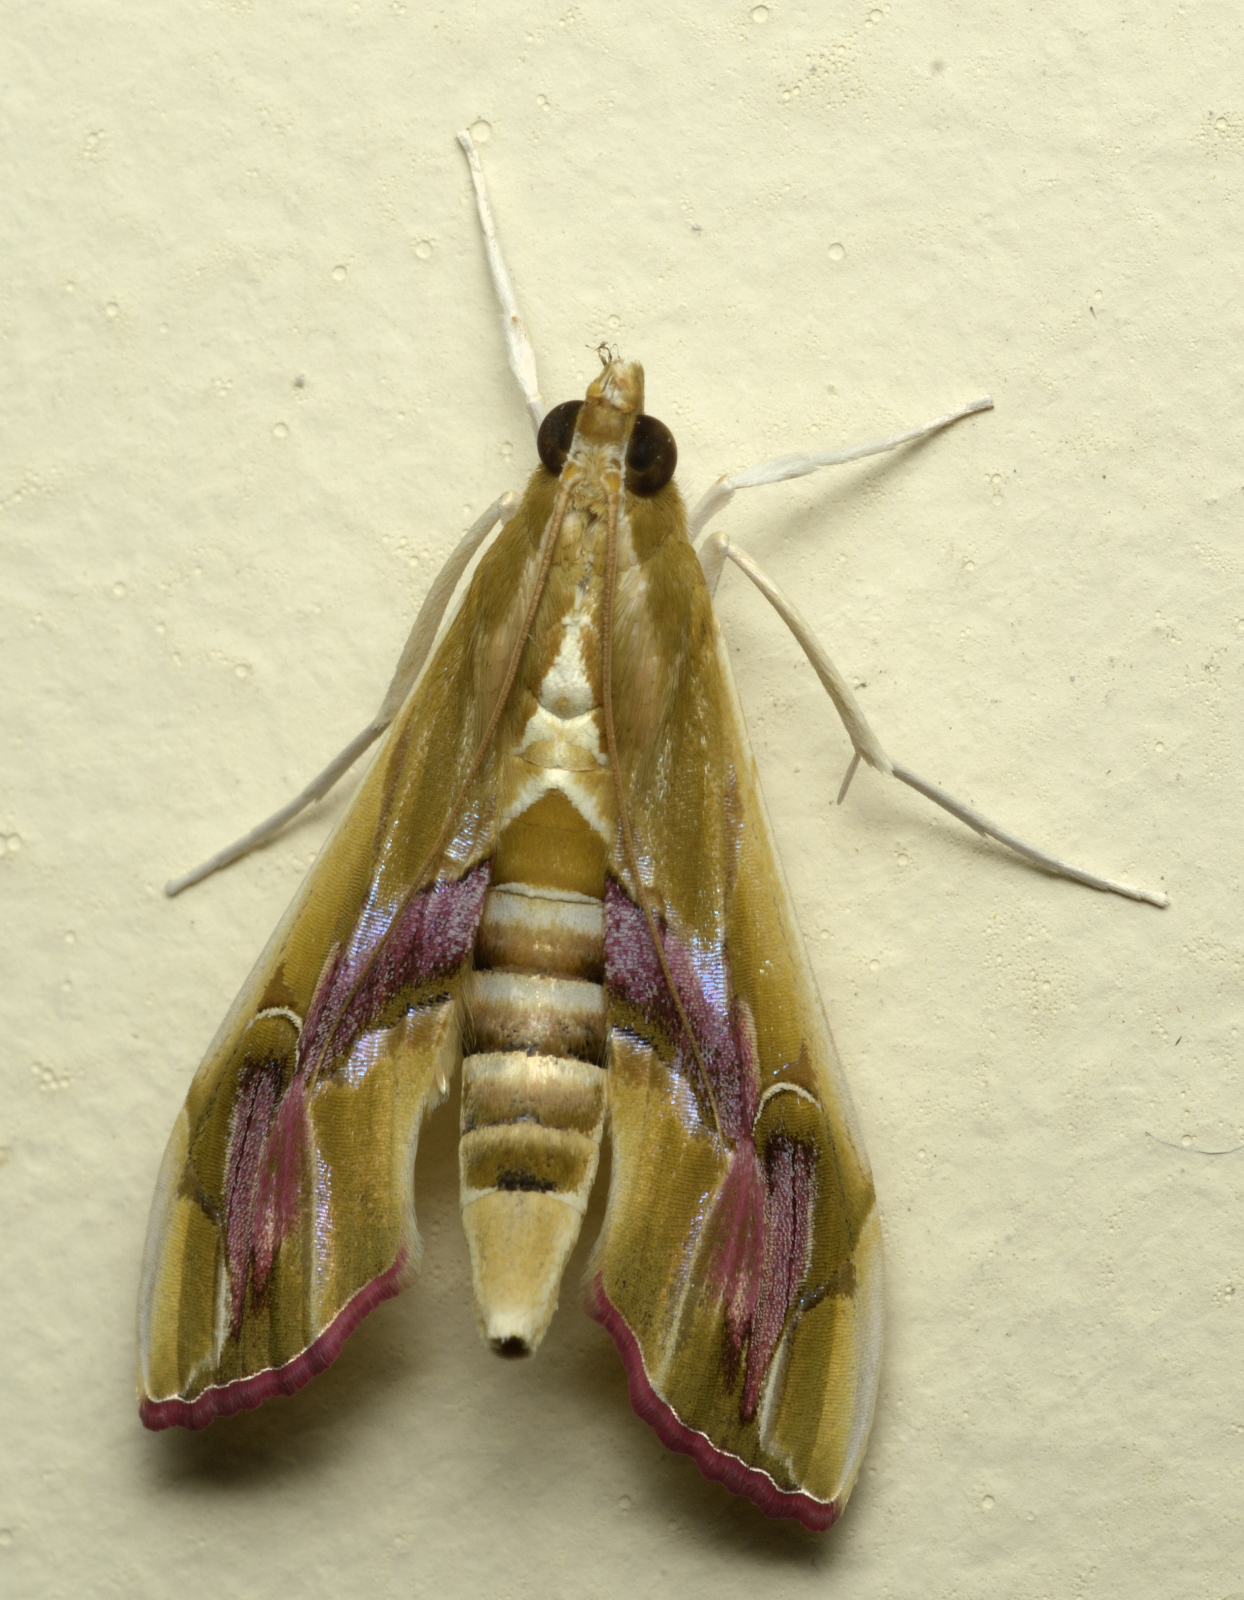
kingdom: Animalia
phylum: Arthropoda
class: Insecta
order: Lepidoptera
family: Crambidae
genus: Agathodes
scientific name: Agathodes ostentalis
